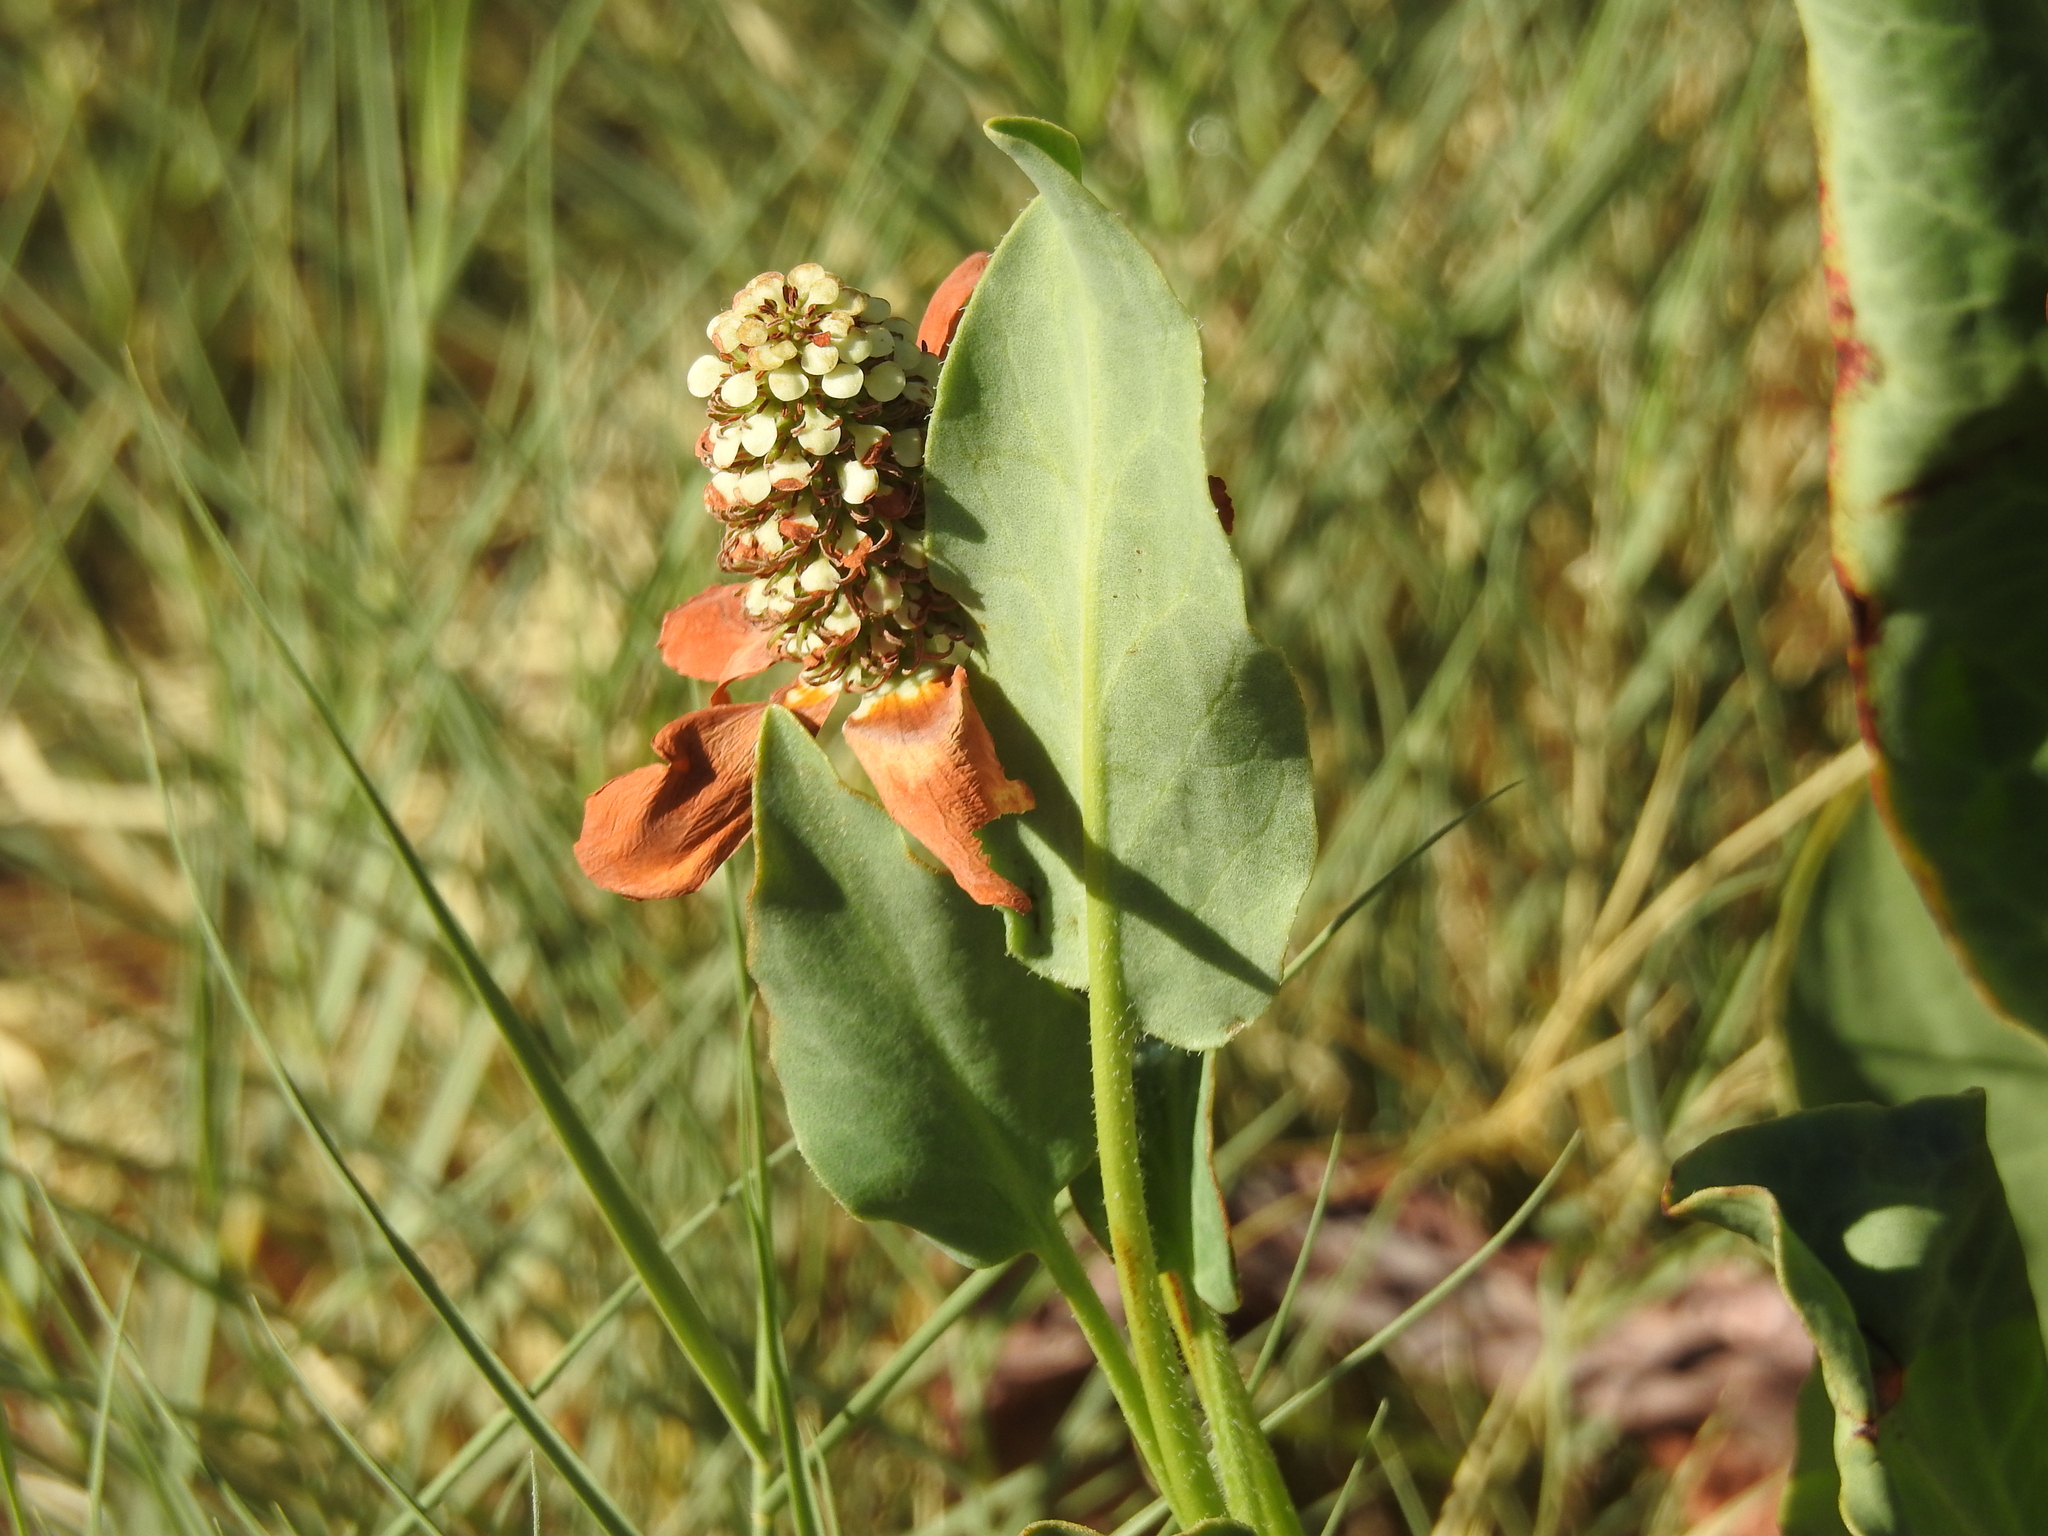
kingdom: Plantae
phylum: Tracheophyta
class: Magnoliopsida
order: Piperales
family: Saururaceae
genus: Anemopsis
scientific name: Anemopsis californica
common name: Apache-beads
